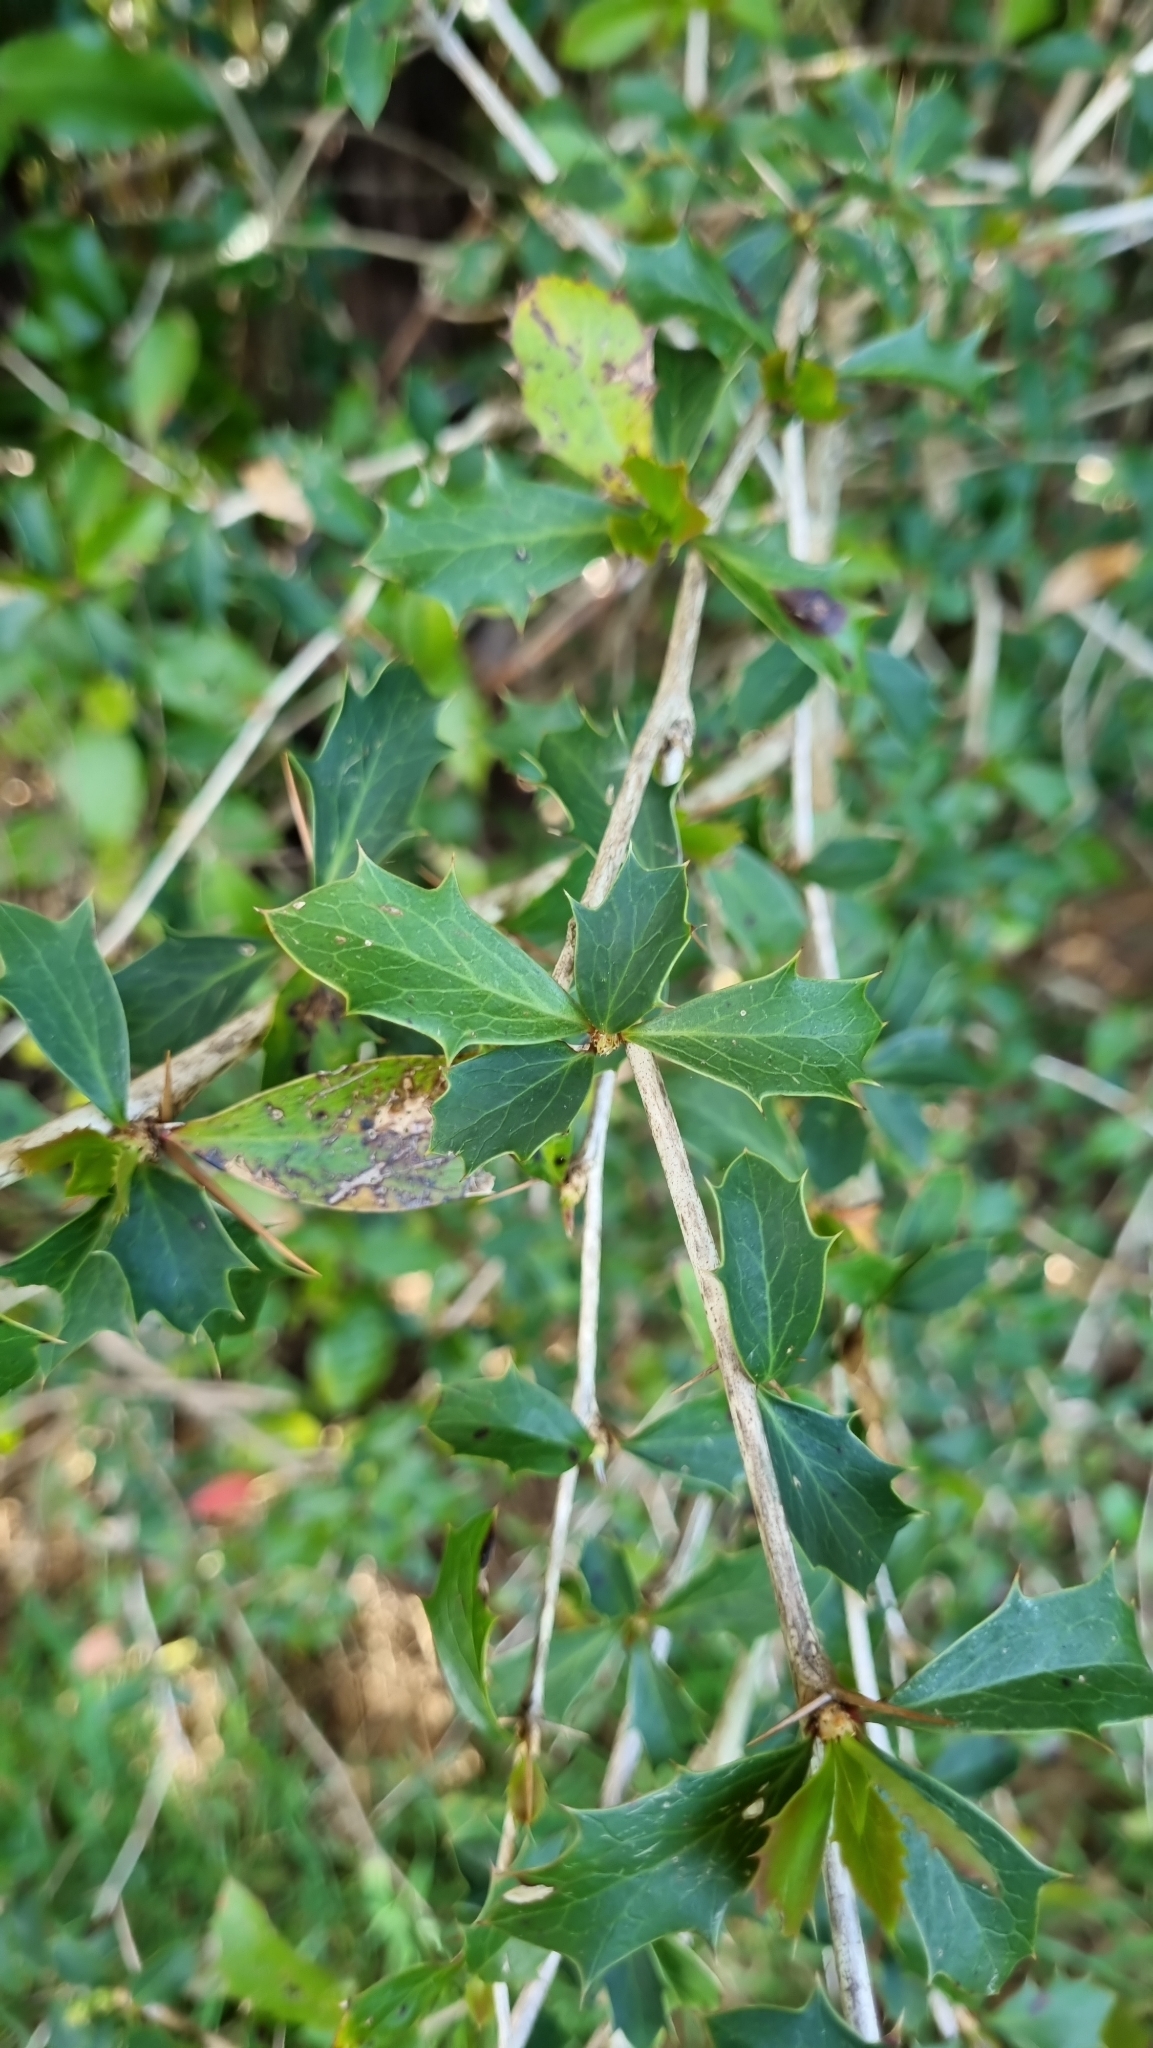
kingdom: Plantae
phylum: Tracheophyta
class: Magnoliopsida
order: Ranunculales
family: Berberidaceae
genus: Berberis
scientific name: Berberis glaucocarpa
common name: Great barberry
